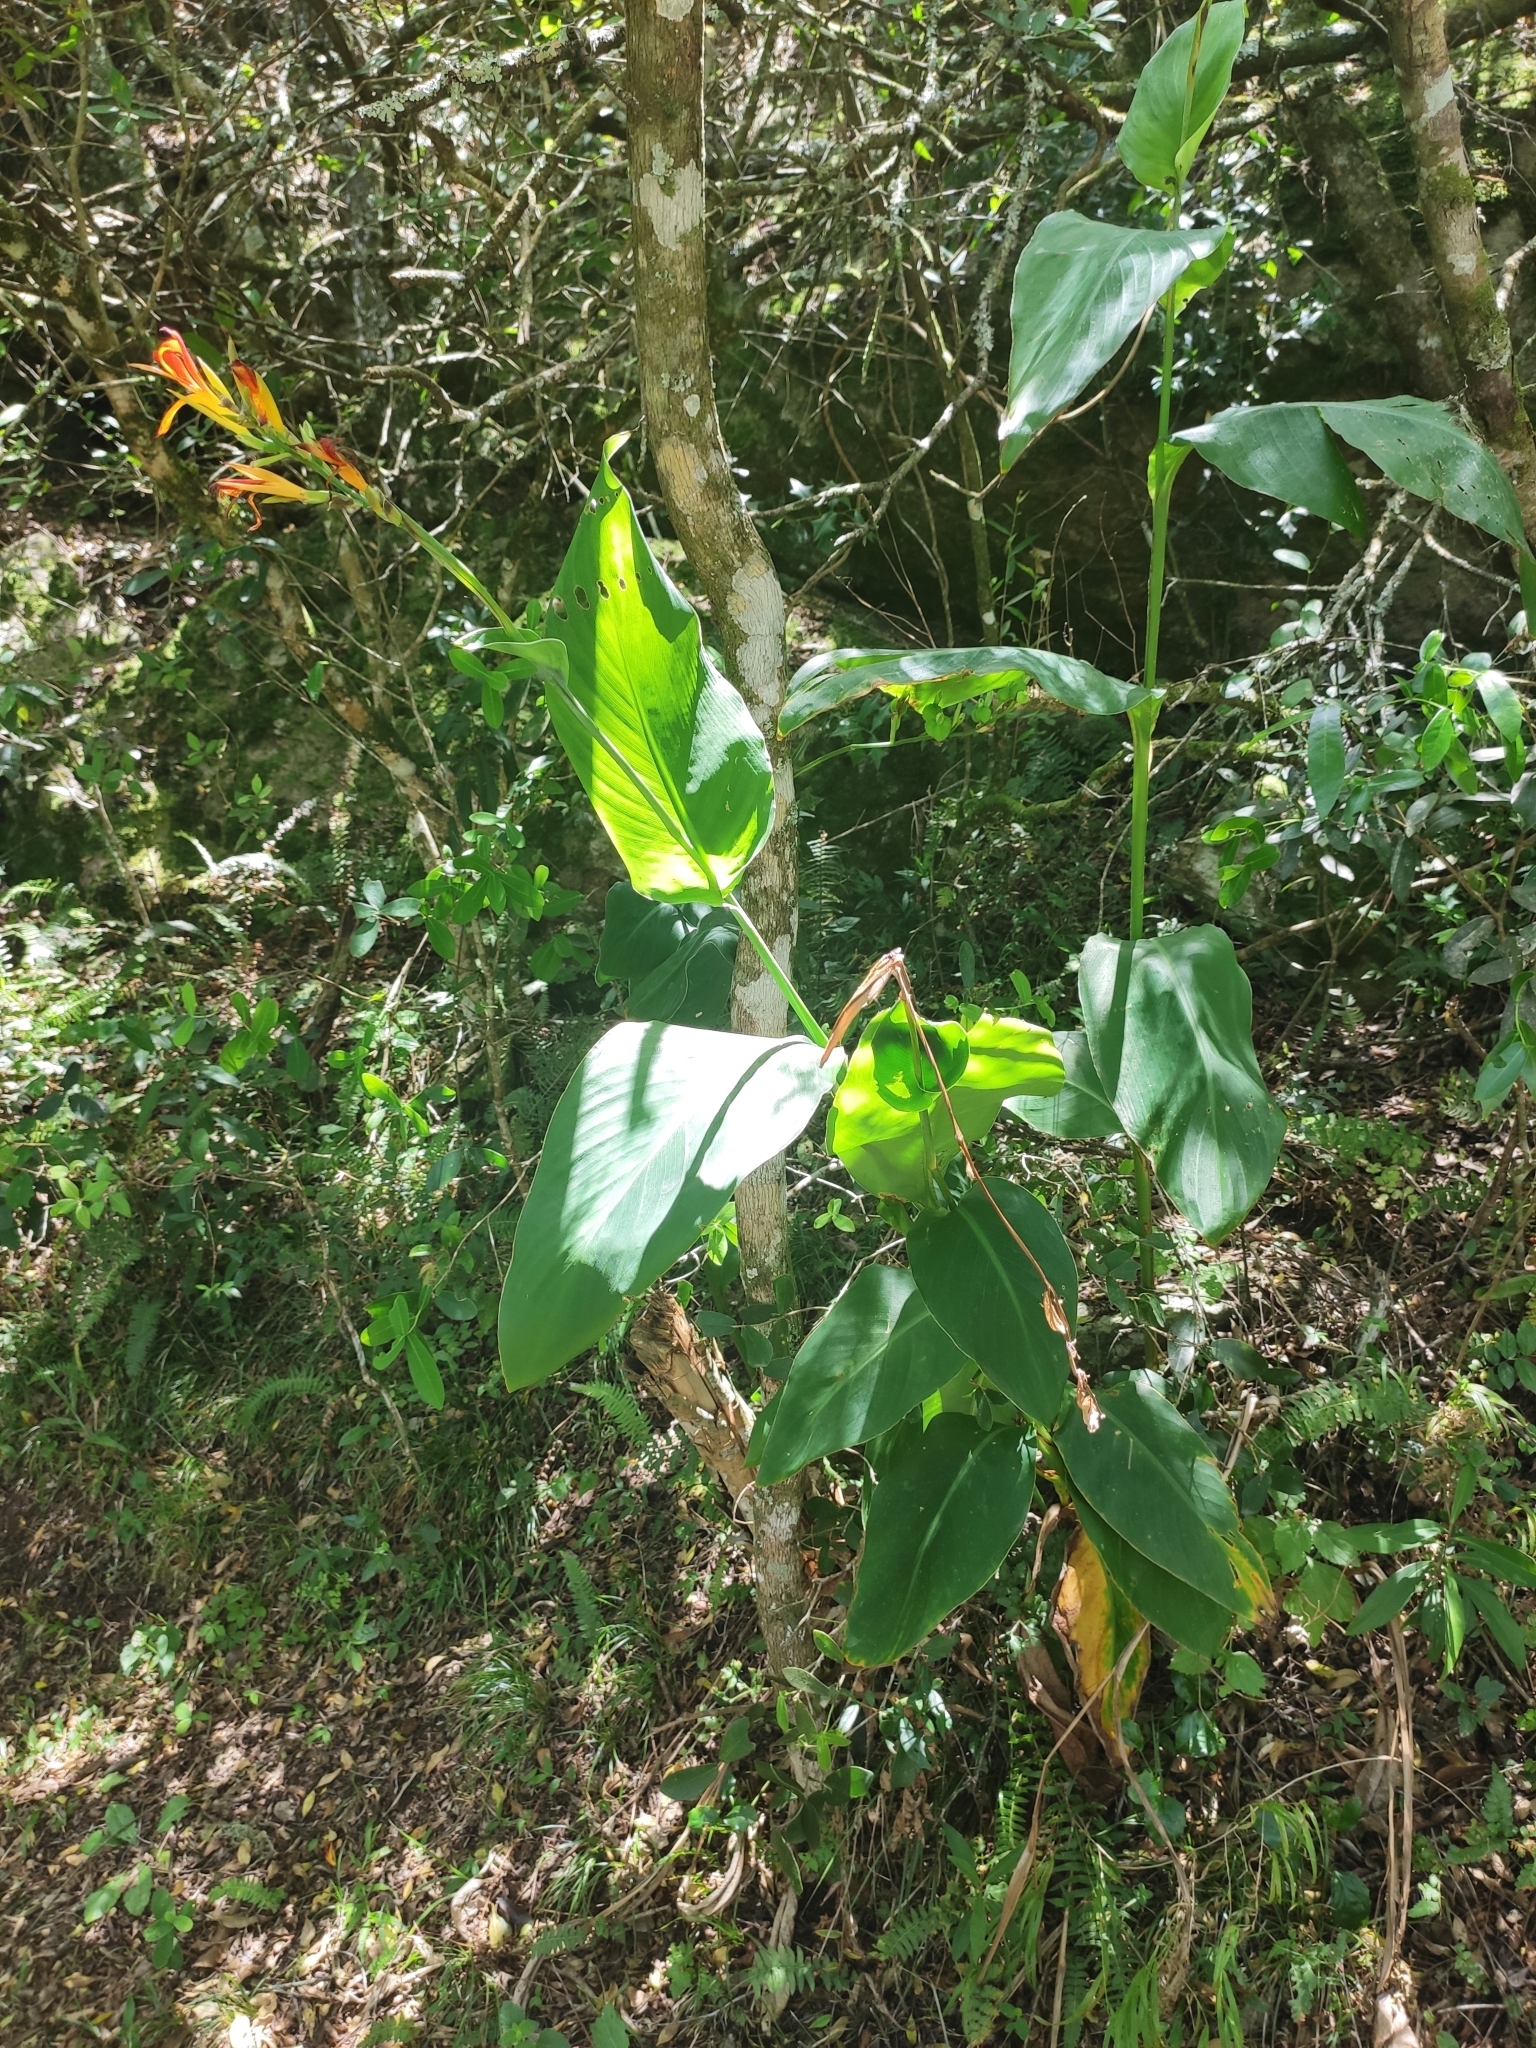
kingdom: Plantae
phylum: Tracheophyta
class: Liliopsida
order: Zingiberales
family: Cannaceae
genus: Canna
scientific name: Canna indica
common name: Indian shot
